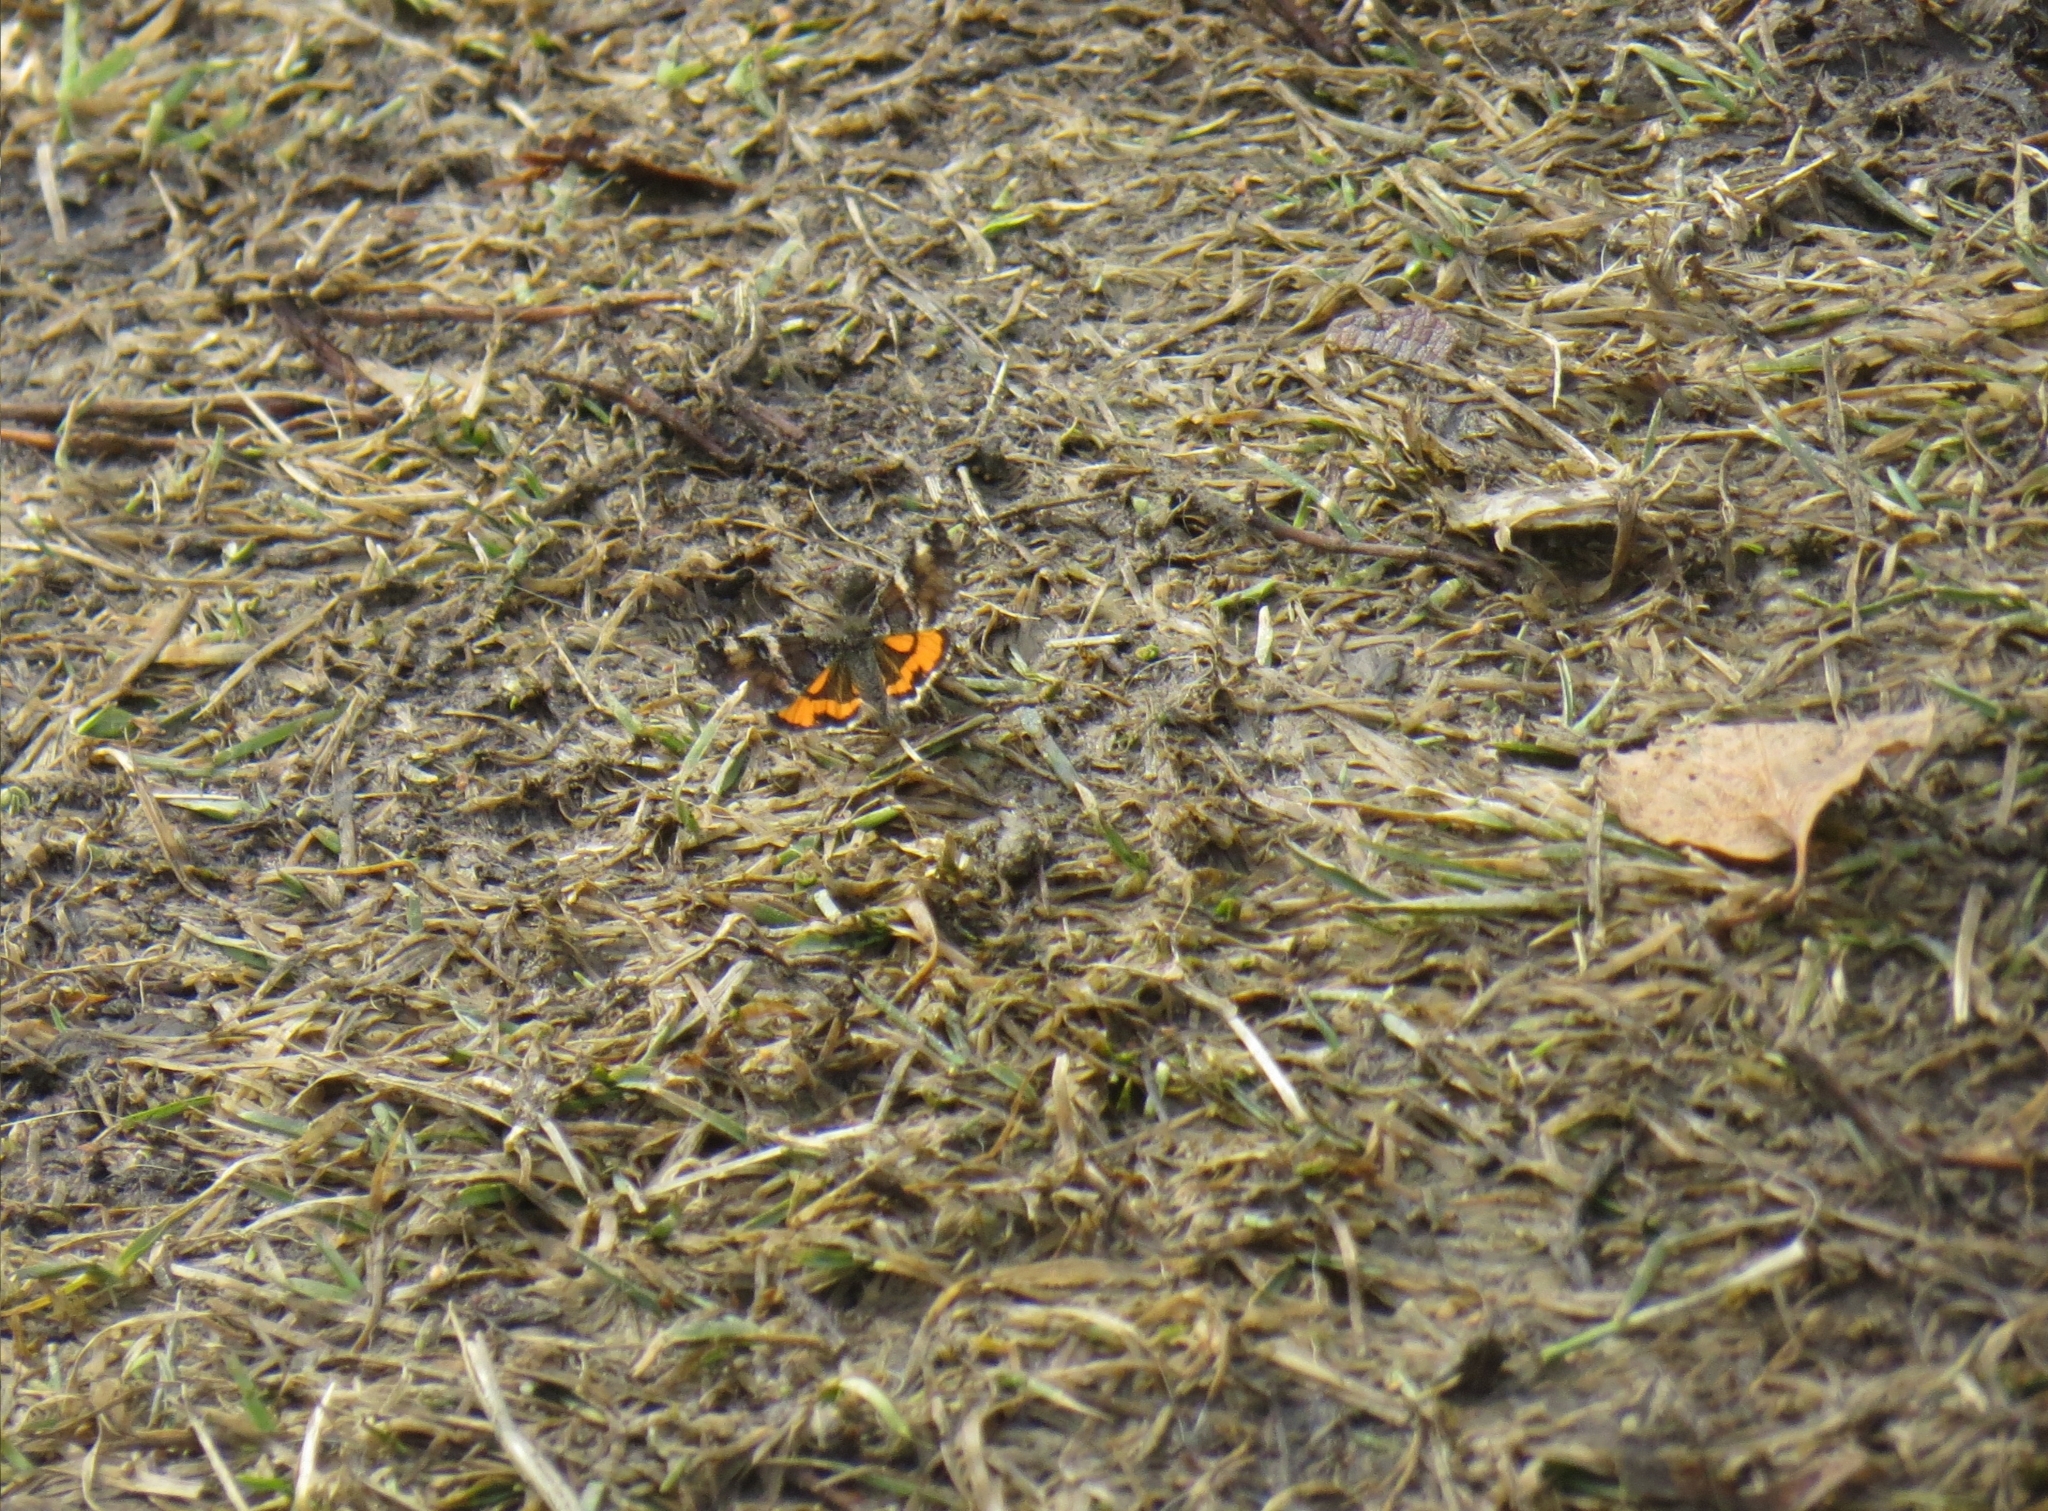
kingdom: Animalia
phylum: Arthropoda
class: Insecta
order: Lepidoptera
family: Geometridae
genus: Archiearis
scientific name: Archiearis parthenias
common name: Orange underwing
